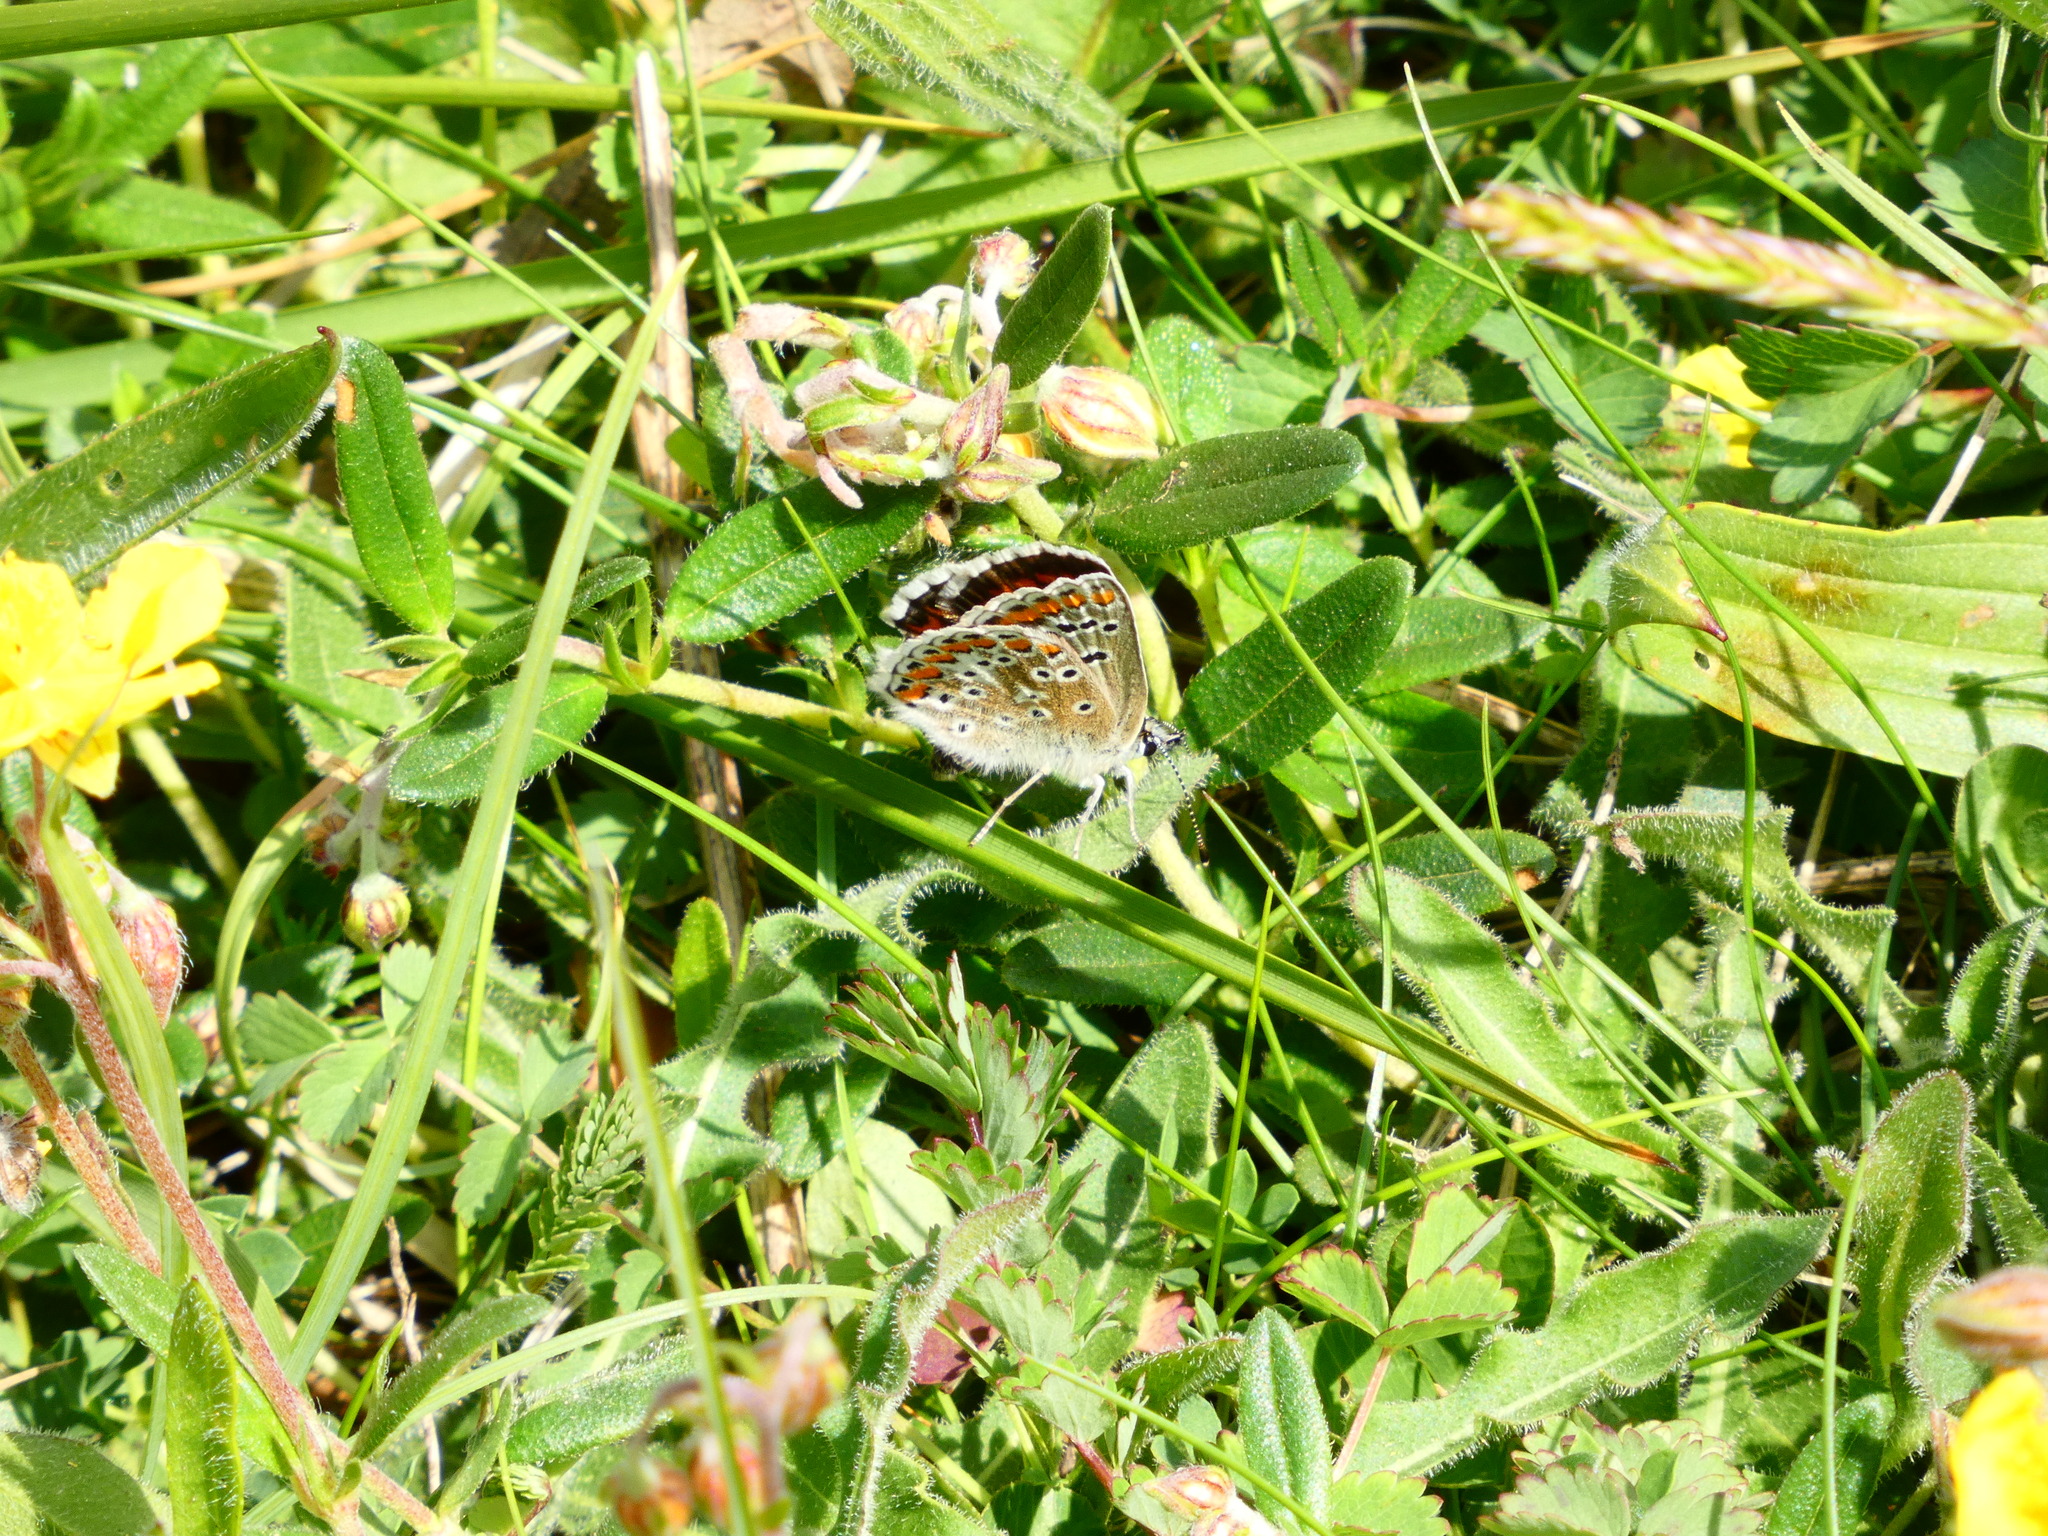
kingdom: Animalia
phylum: Arthropoda
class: Insecta
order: Lepidoptera
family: Lycaenidae
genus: Aricia
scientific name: Aricia agestis
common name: Brown argus
